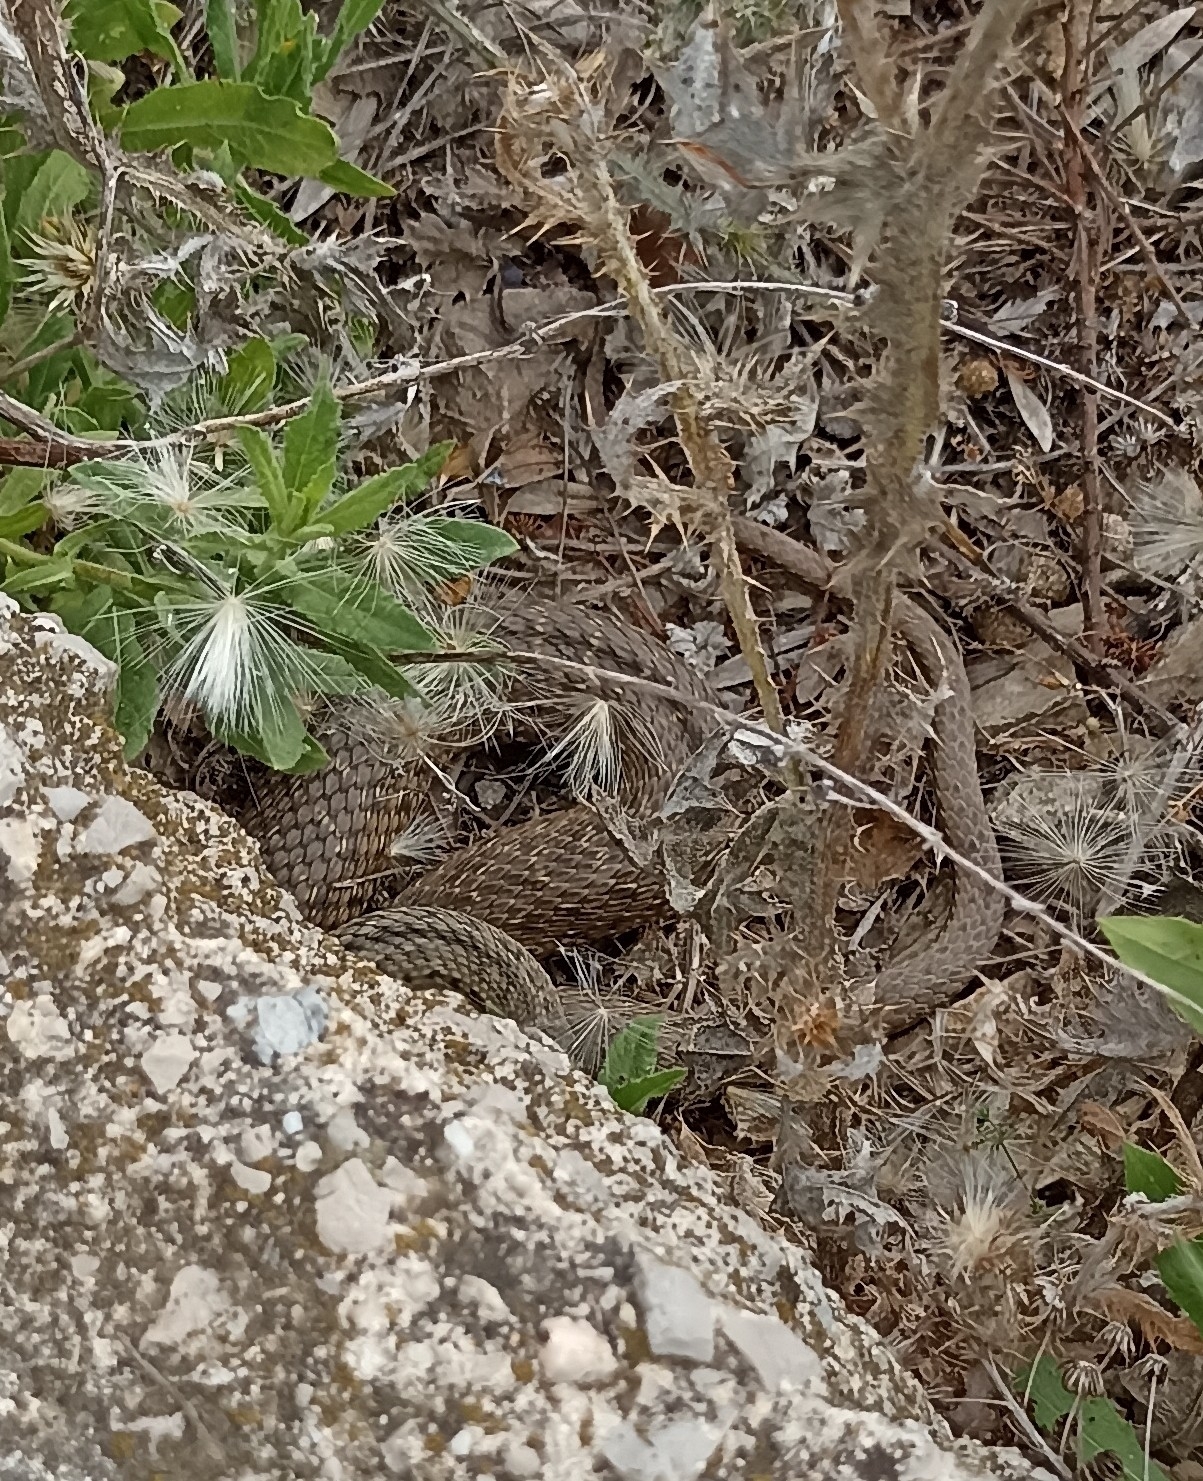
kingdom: Animalia
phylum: Chordata
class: Squamata
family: Psammophiidae
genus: Malpolon
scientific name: Malpolon monspessulanus
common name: Montpellier snake
